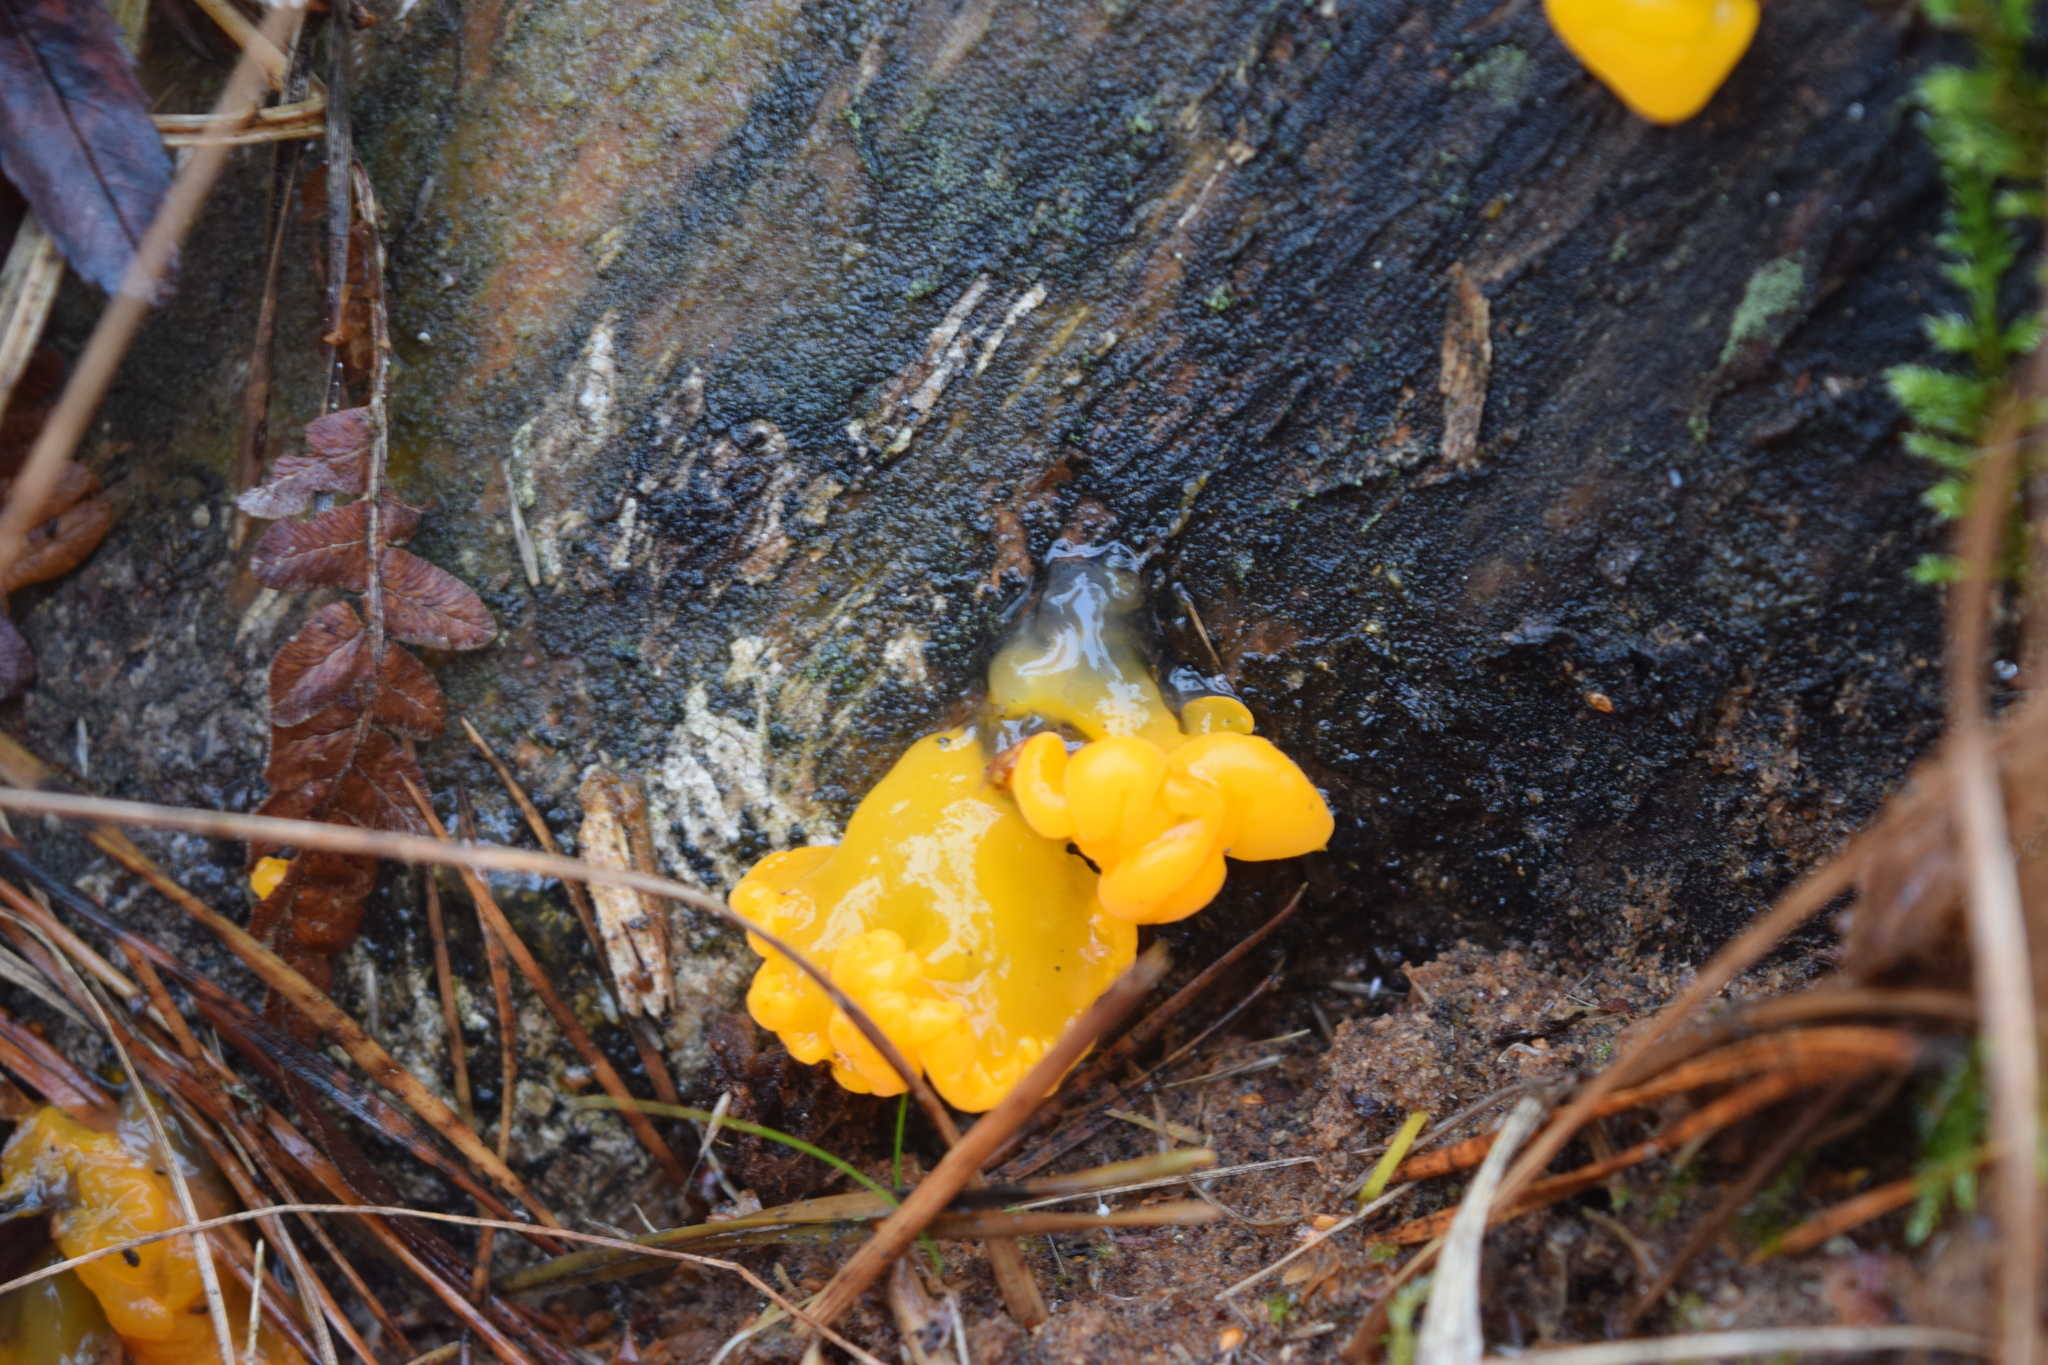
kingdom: Fungi
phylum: Basidiomycota
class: Dacrymycetes
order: Dacrymycetales
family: Dacrymycetaceae
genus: Dacrymyces
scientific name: Dacrymyces chrysospermus
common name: Orange jelly spot
